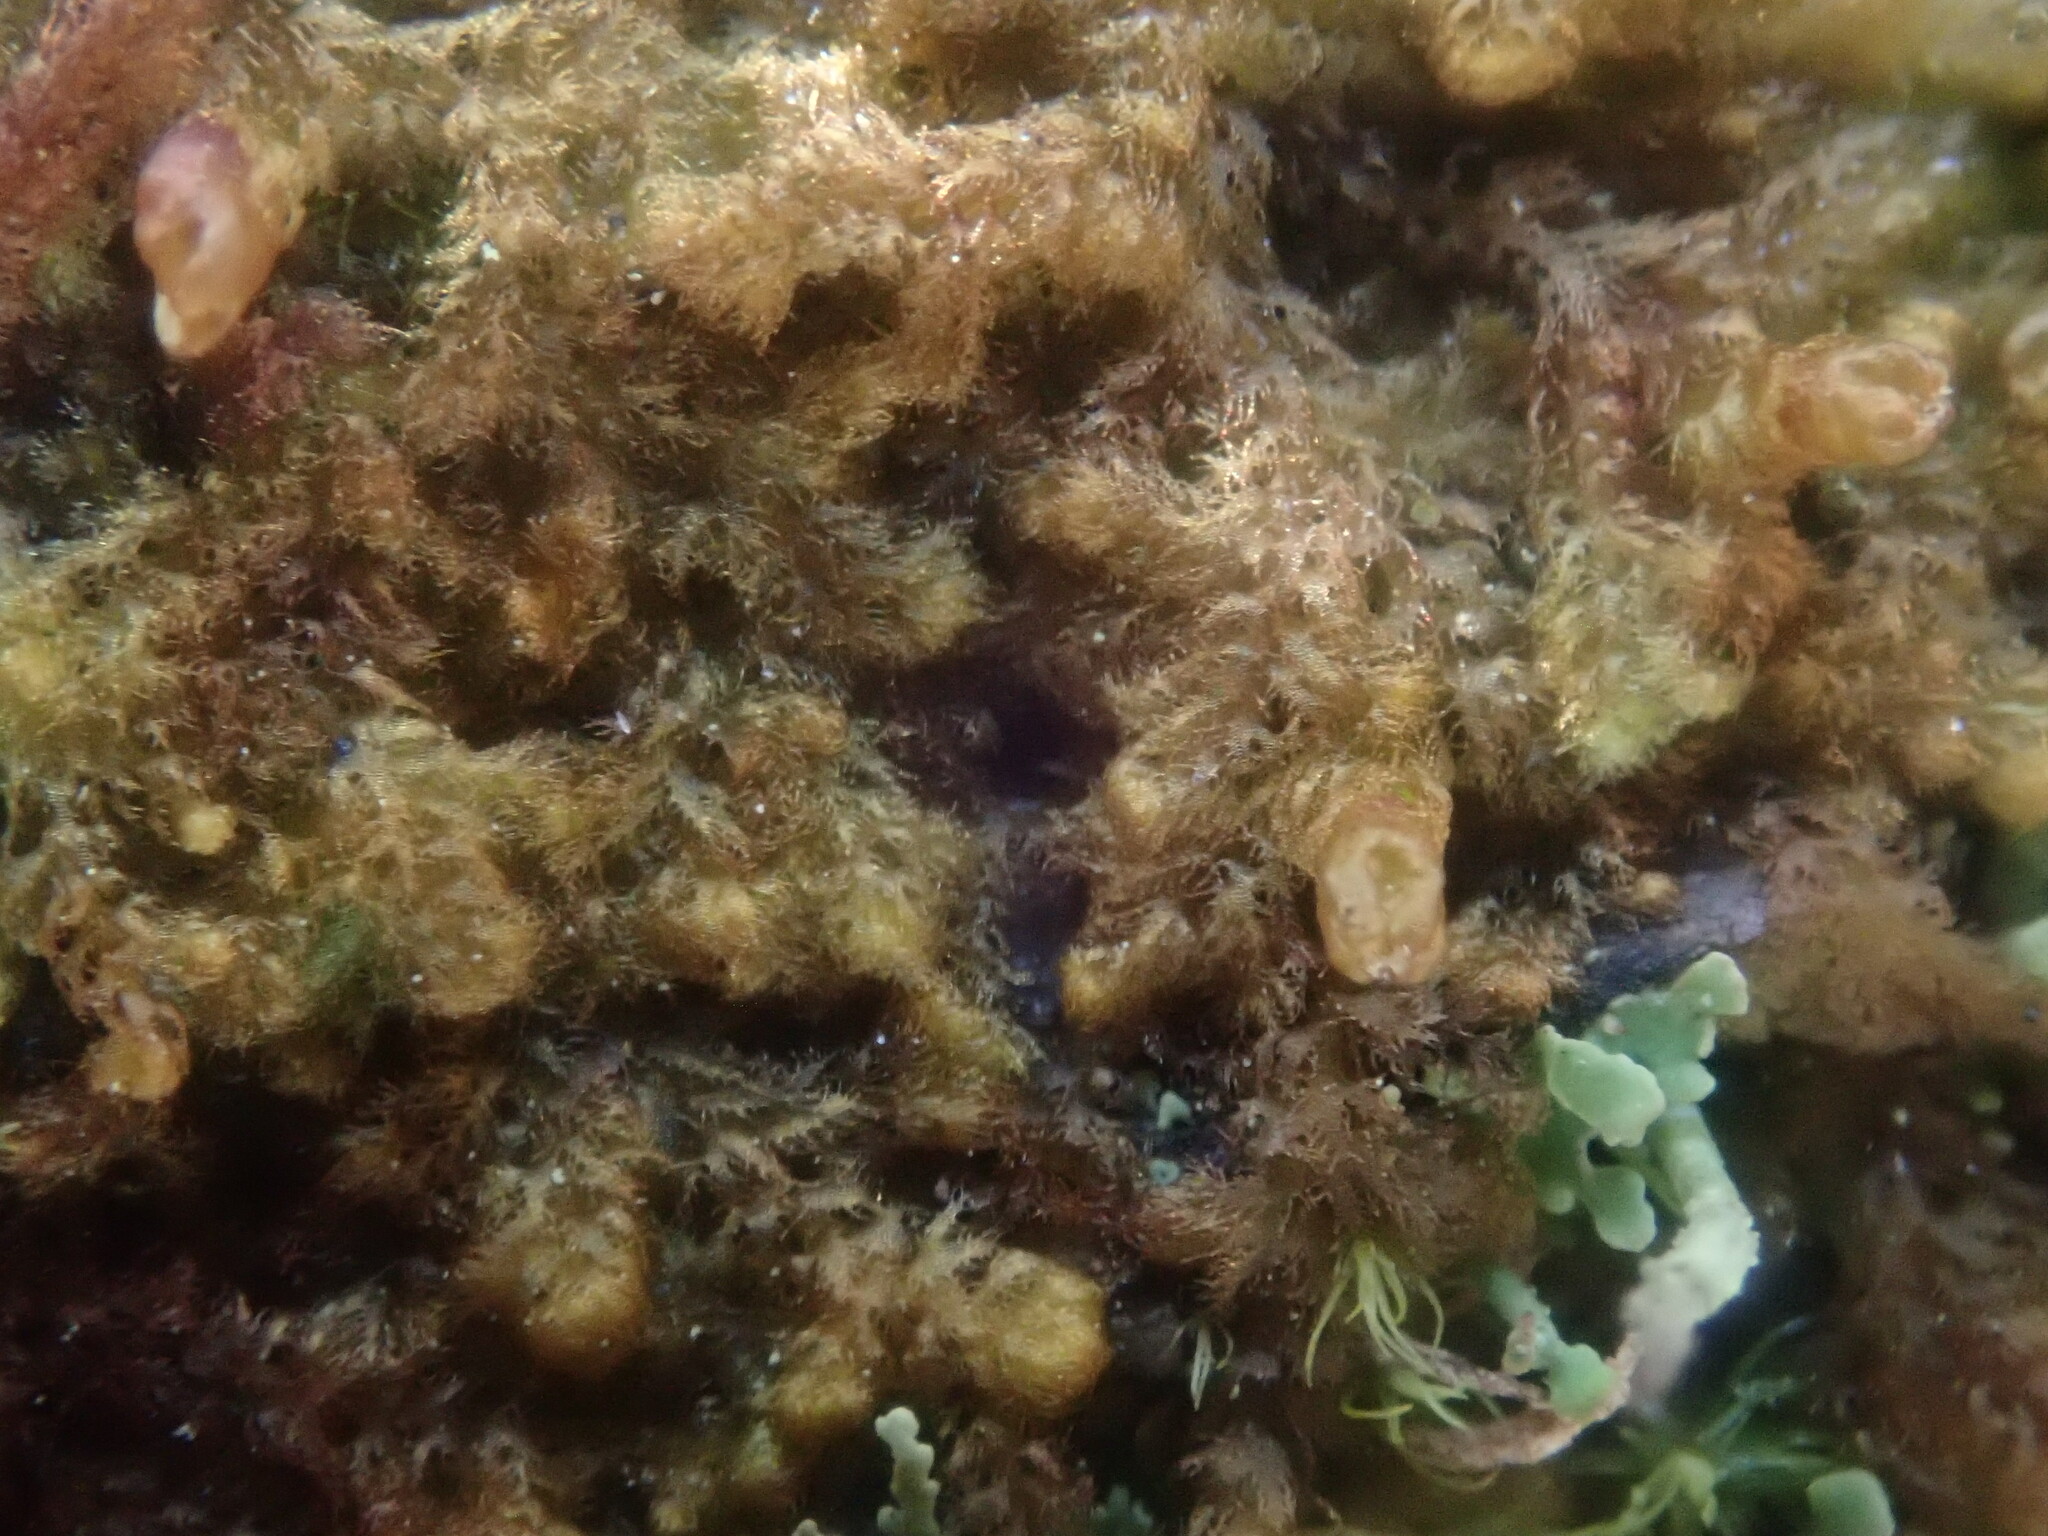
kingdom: Plantae
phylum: Marchantiophyta
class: Jungermanniopsida
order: Ptilidiales
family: Ptilidiaceae
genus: Ptilidium
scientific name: Ptilidium pulcherrimum
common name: Tree fringewort
